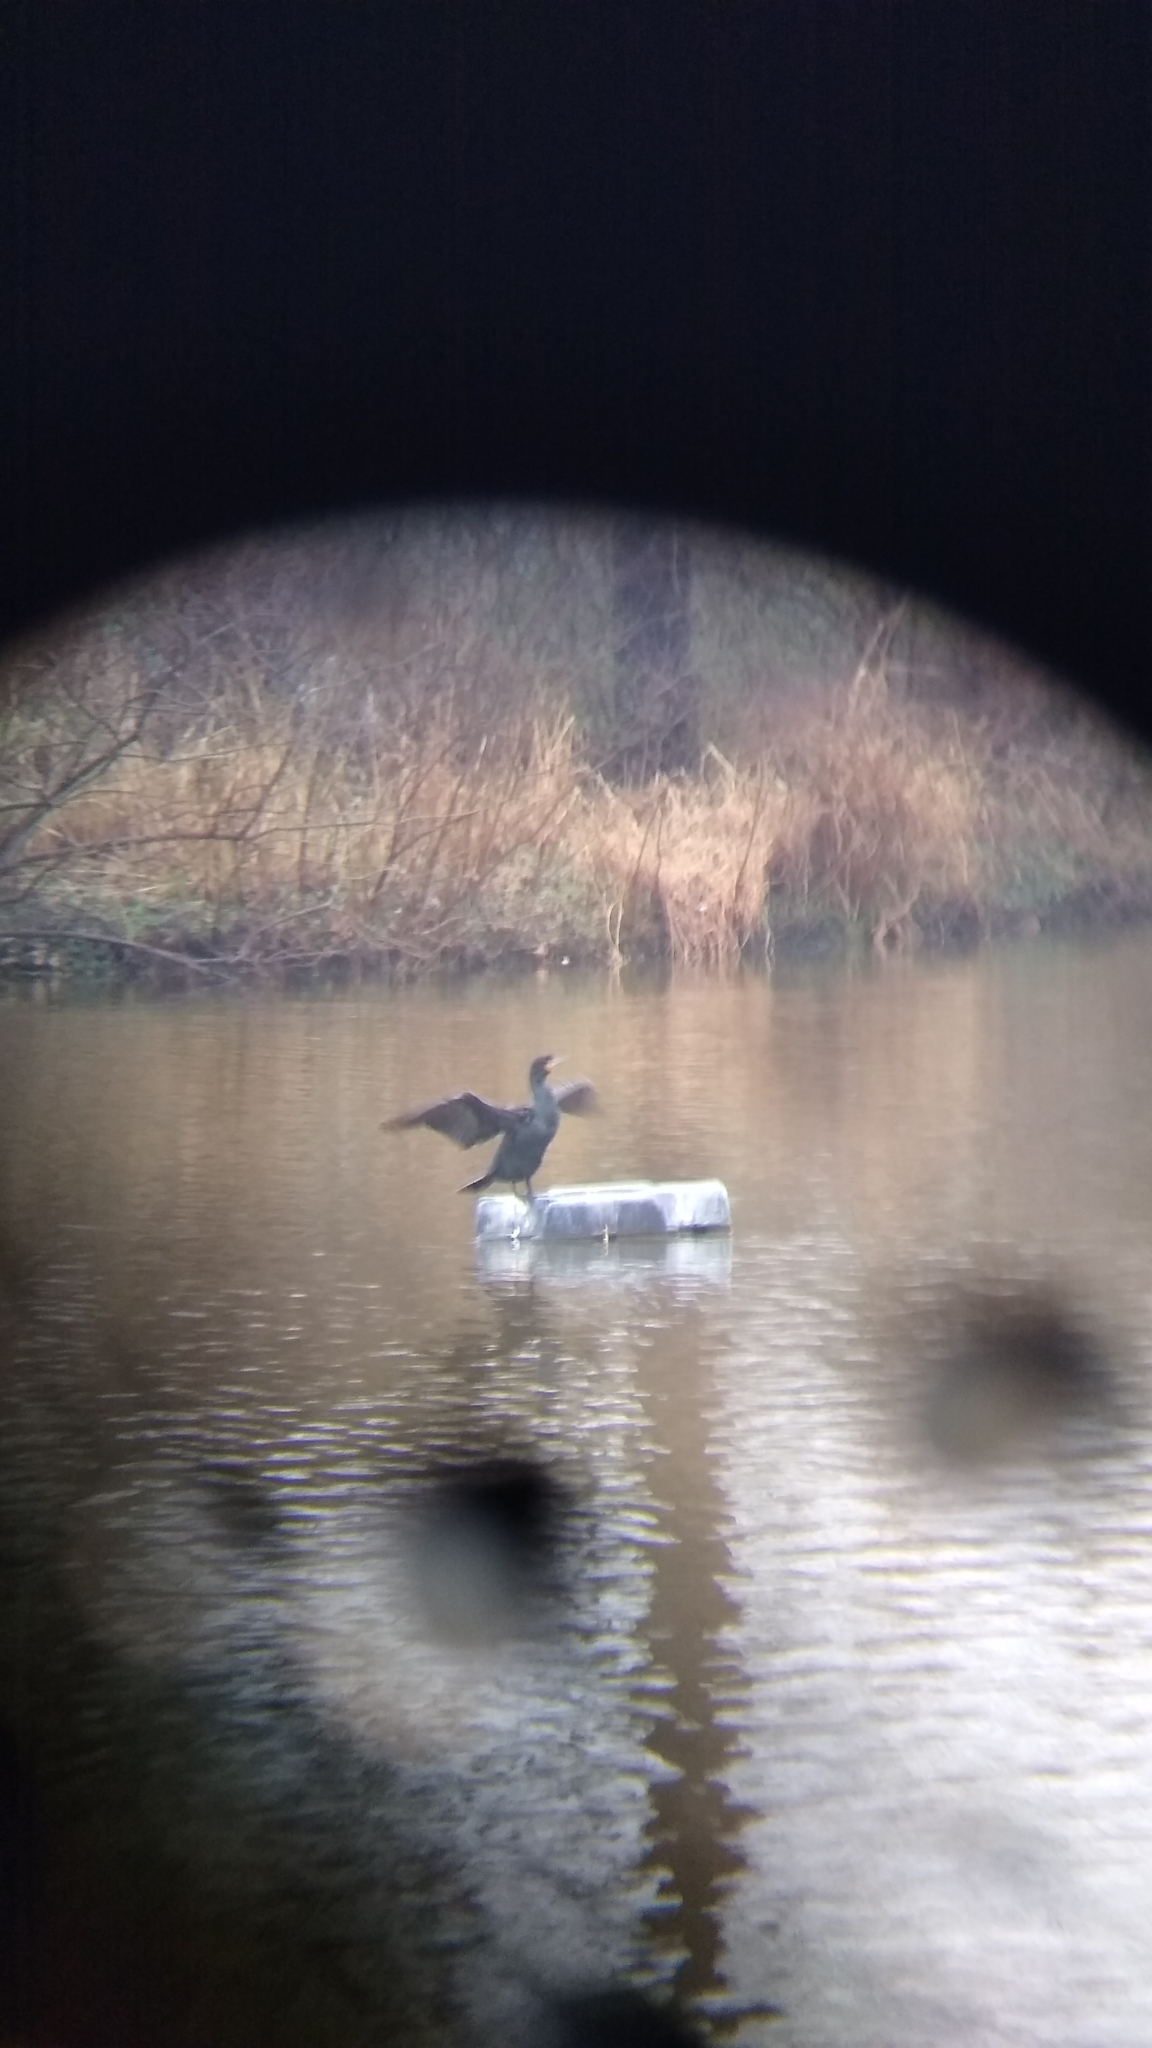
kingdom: Animalia
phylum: Chordata
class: Aves
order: Suliformes
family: Phalacrocoracidae
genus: Phalacrocorax
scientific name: Phalacrocorax auritus
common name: Double-crested cormorant
